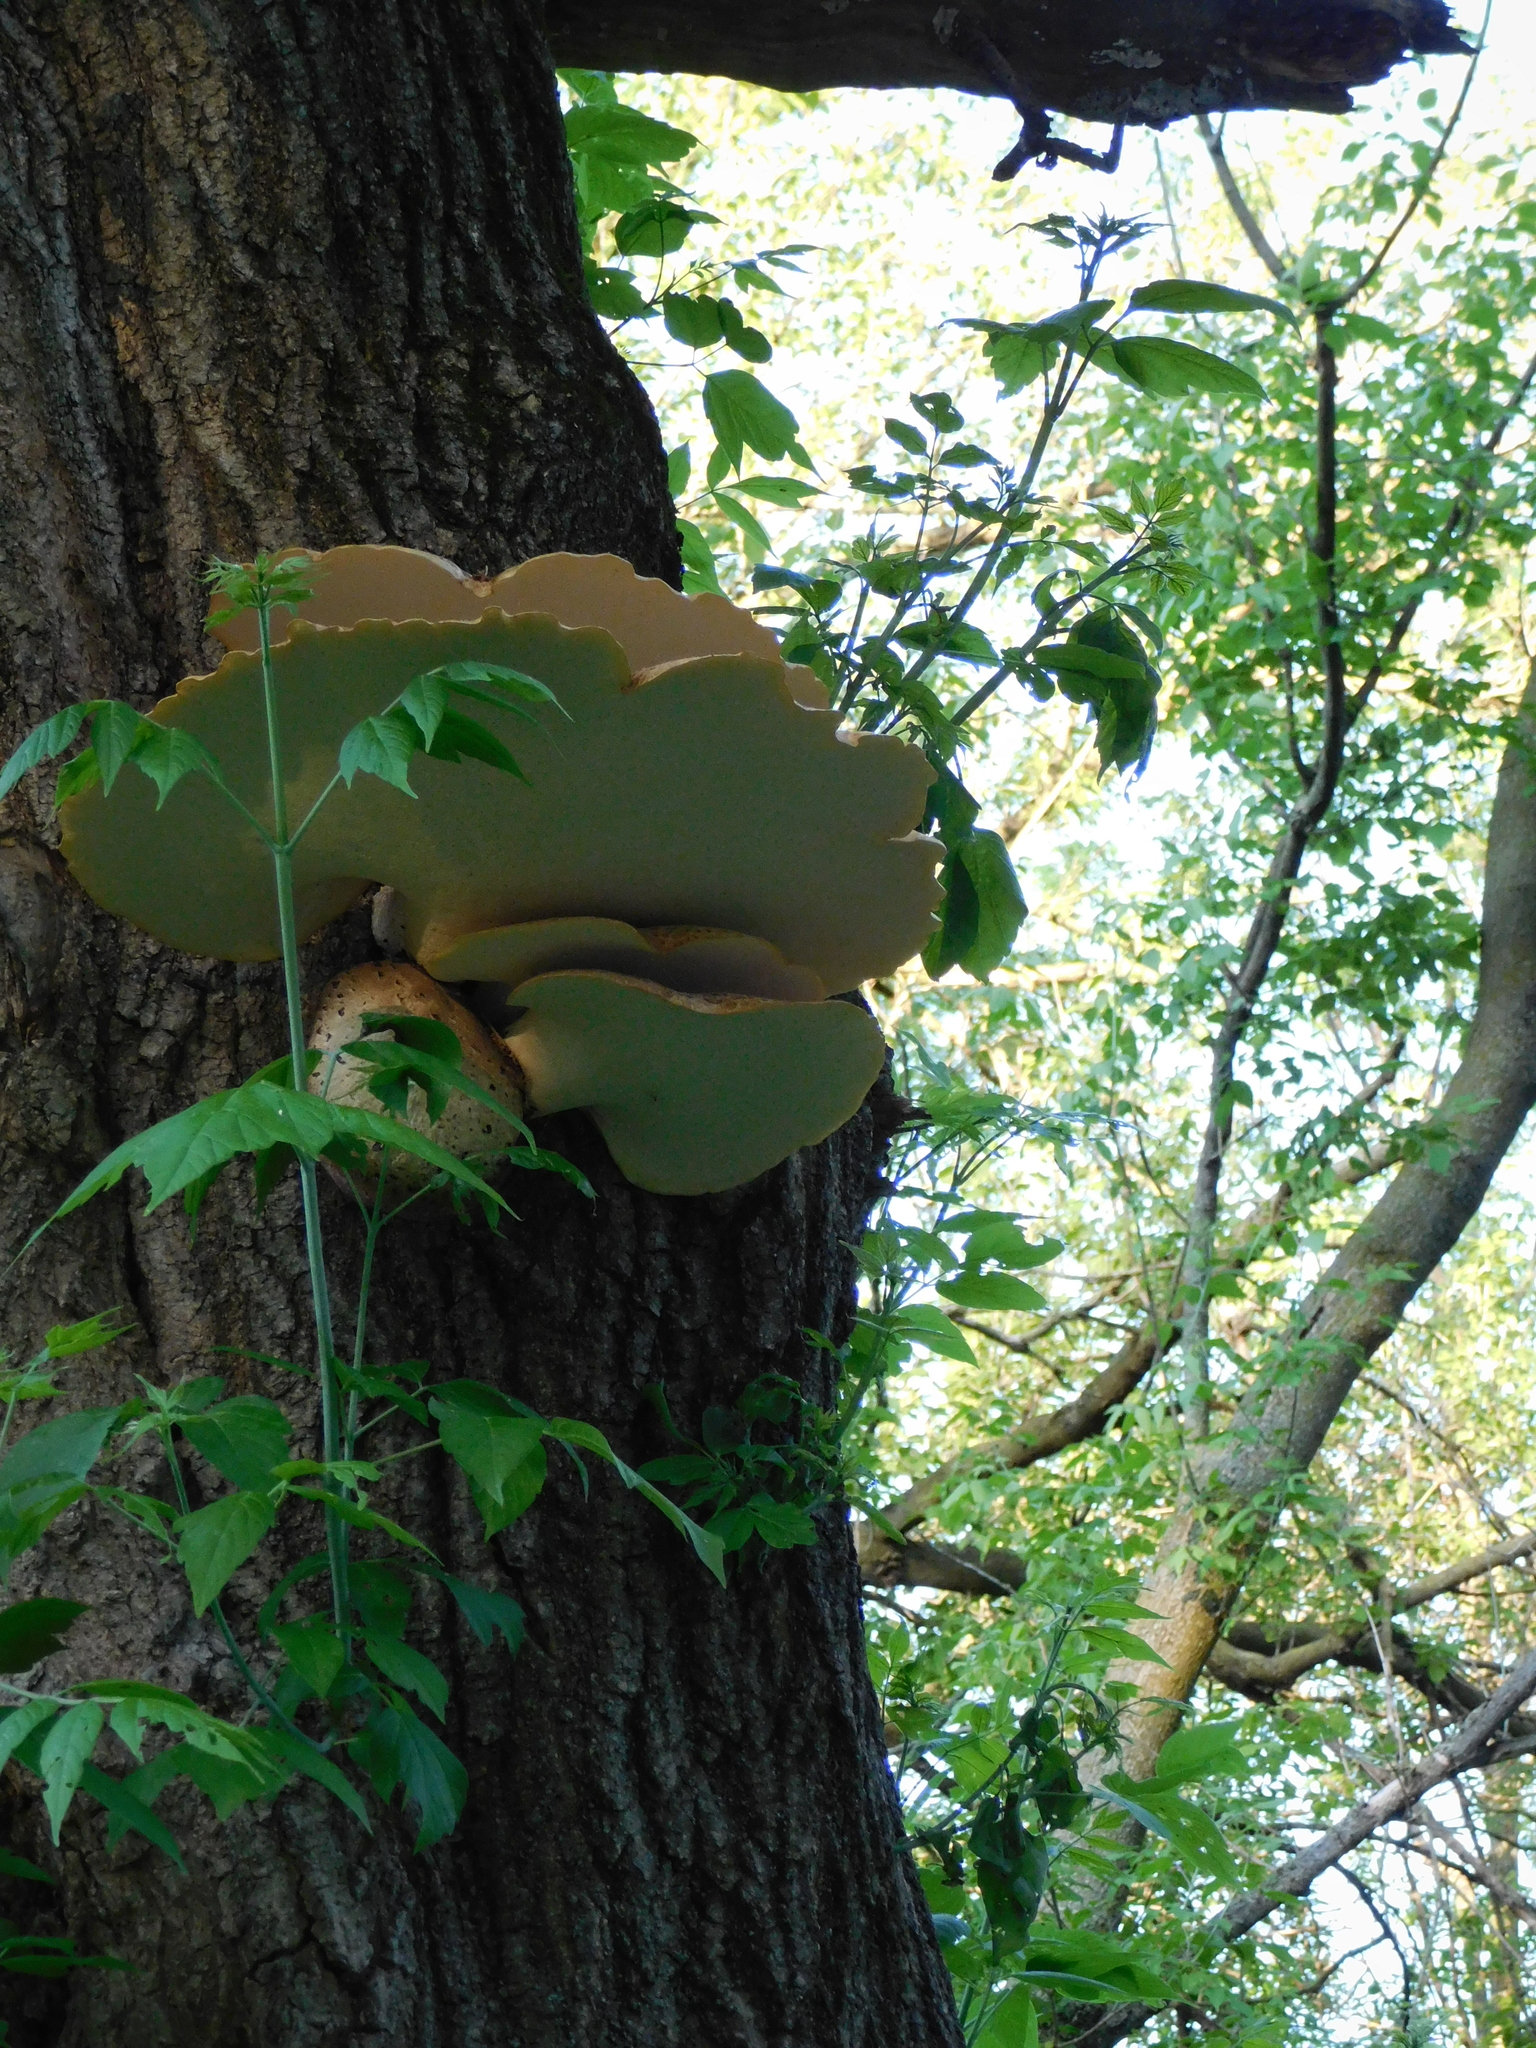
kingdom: Fungi
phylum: Basidiomycota
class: Agaricomycetes
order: Polyporales
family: Polyporaceae
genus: Cerioporus
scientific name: Cerioporus squamosus
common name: Dryad's saddle
